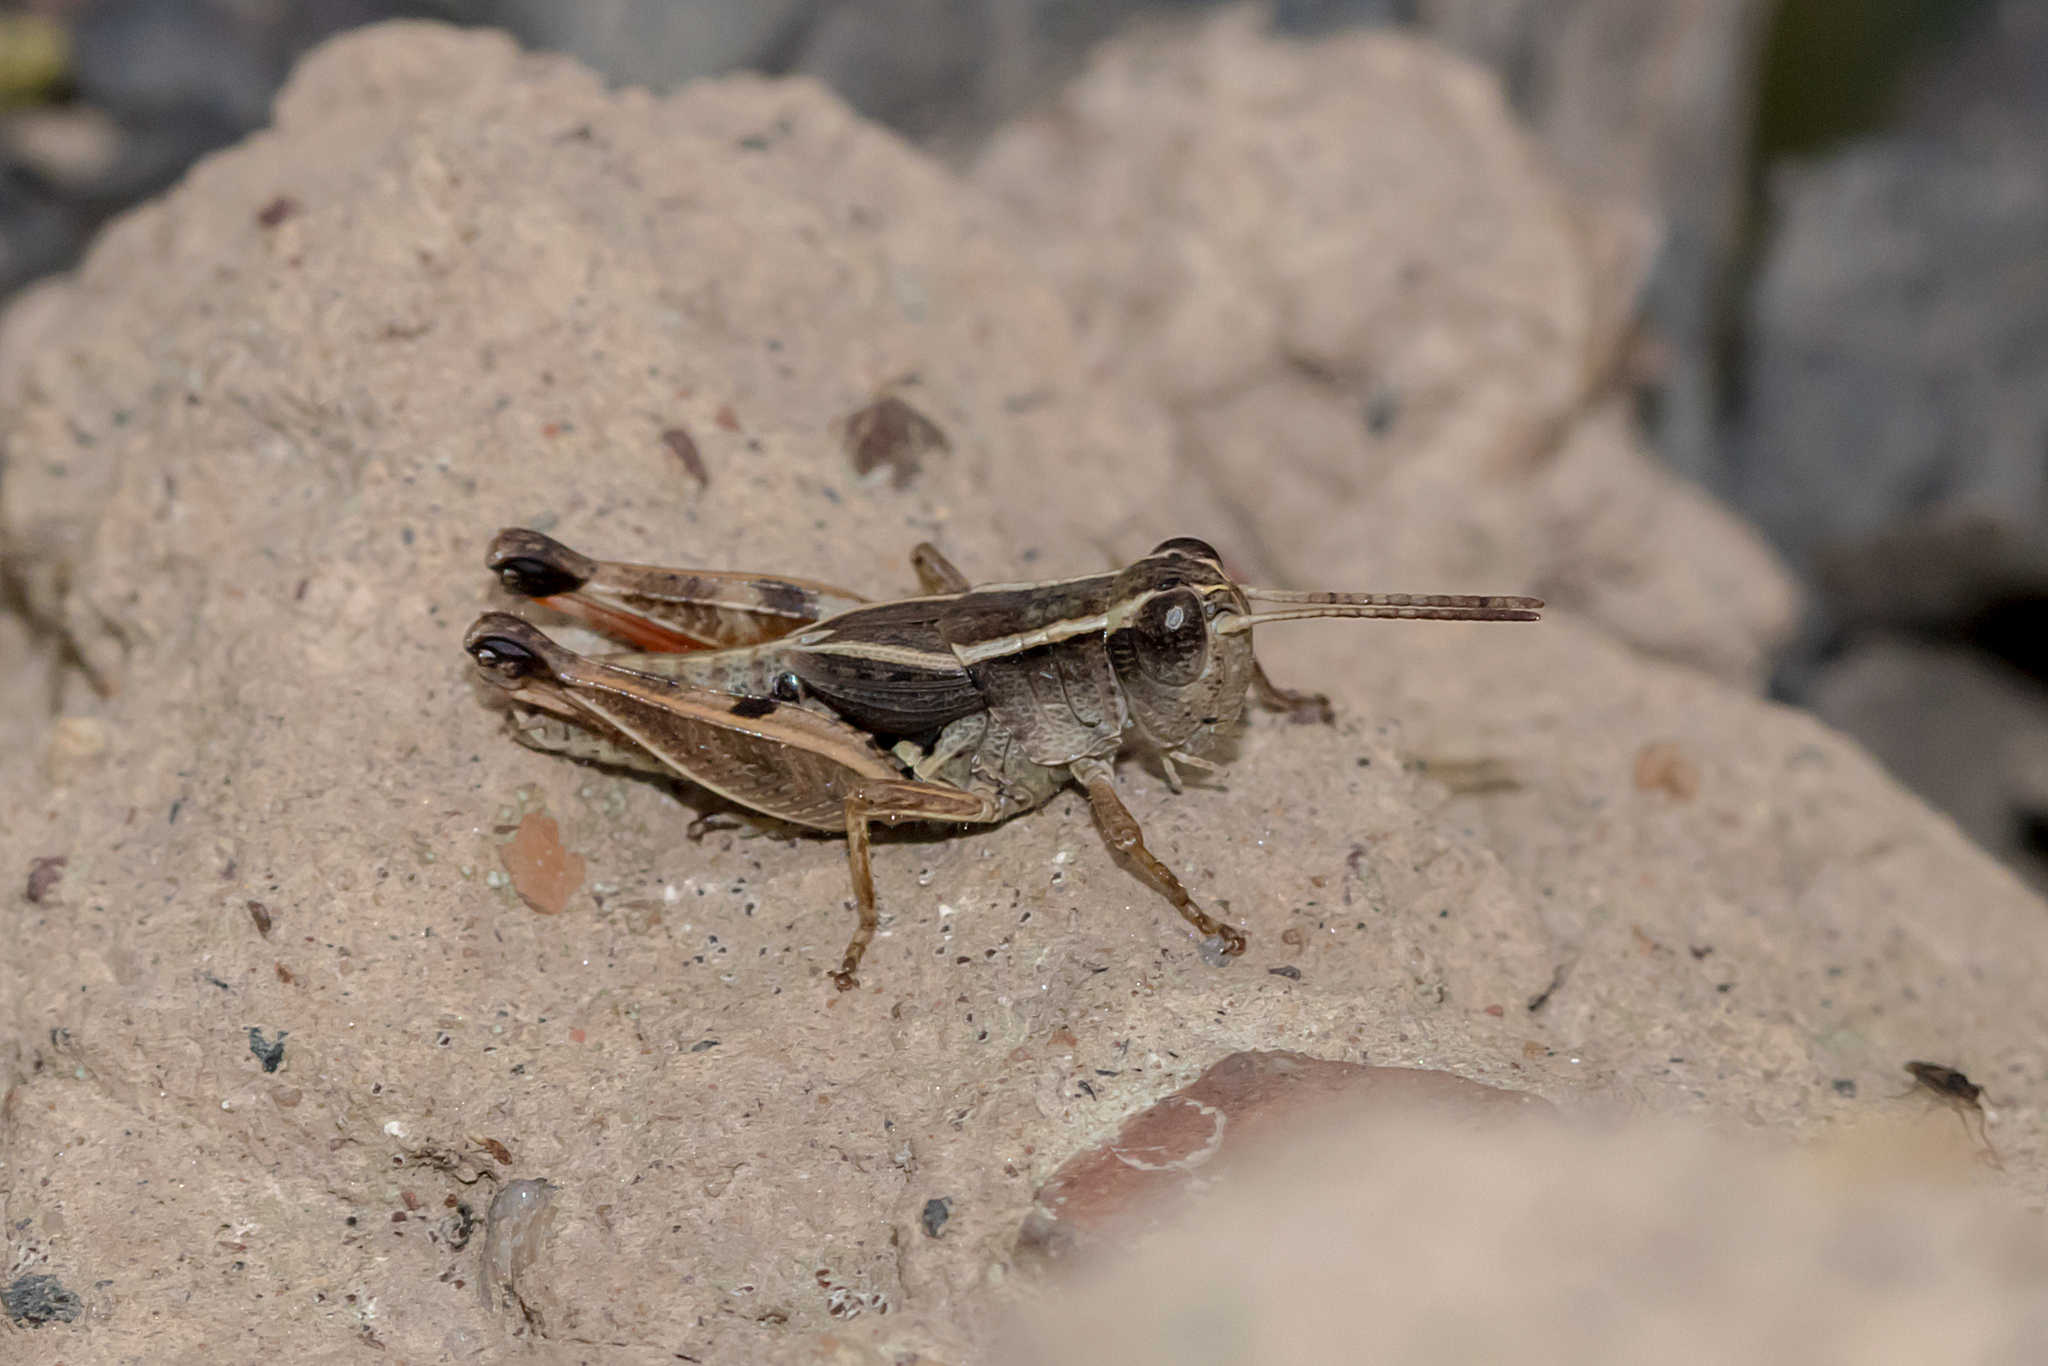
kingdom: Animalia
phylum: Arthropoda
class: Insecta
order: Orthoptera
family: Acrididae
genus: Phaulacridium
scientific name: Phaulacridium vittatum
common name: Wingless grasshopper
